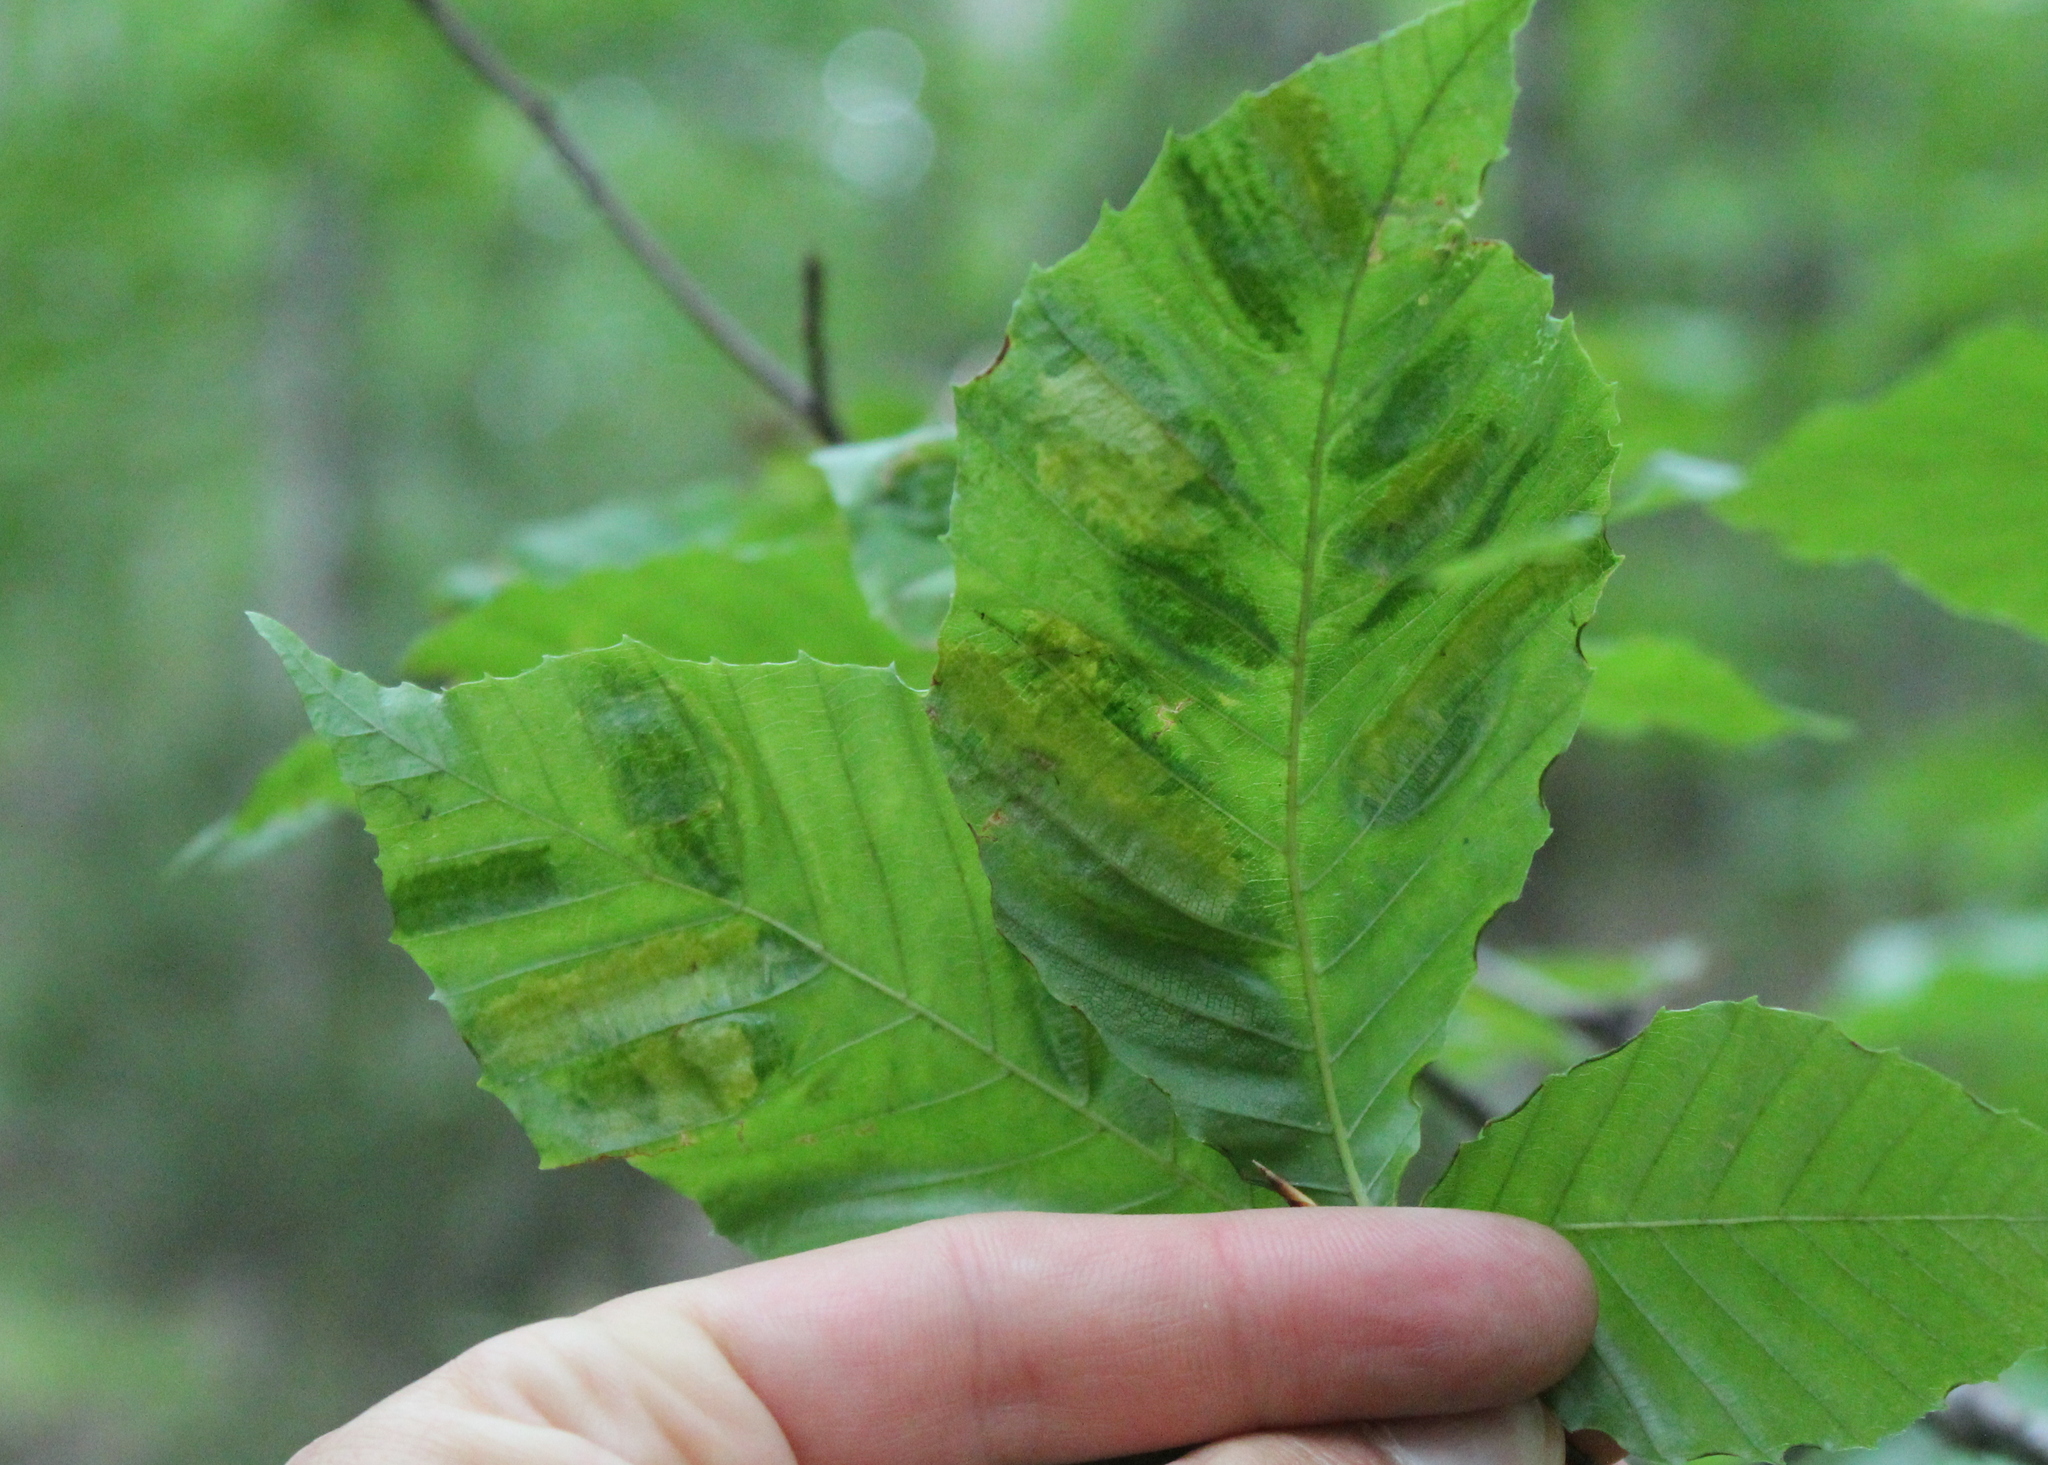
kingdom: Plantae
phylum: Tracheophyta
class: Magnoliopsida
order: Fagales
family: Fagaceae
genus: Fagus
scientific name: Fagus grandifolia
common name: American beech
